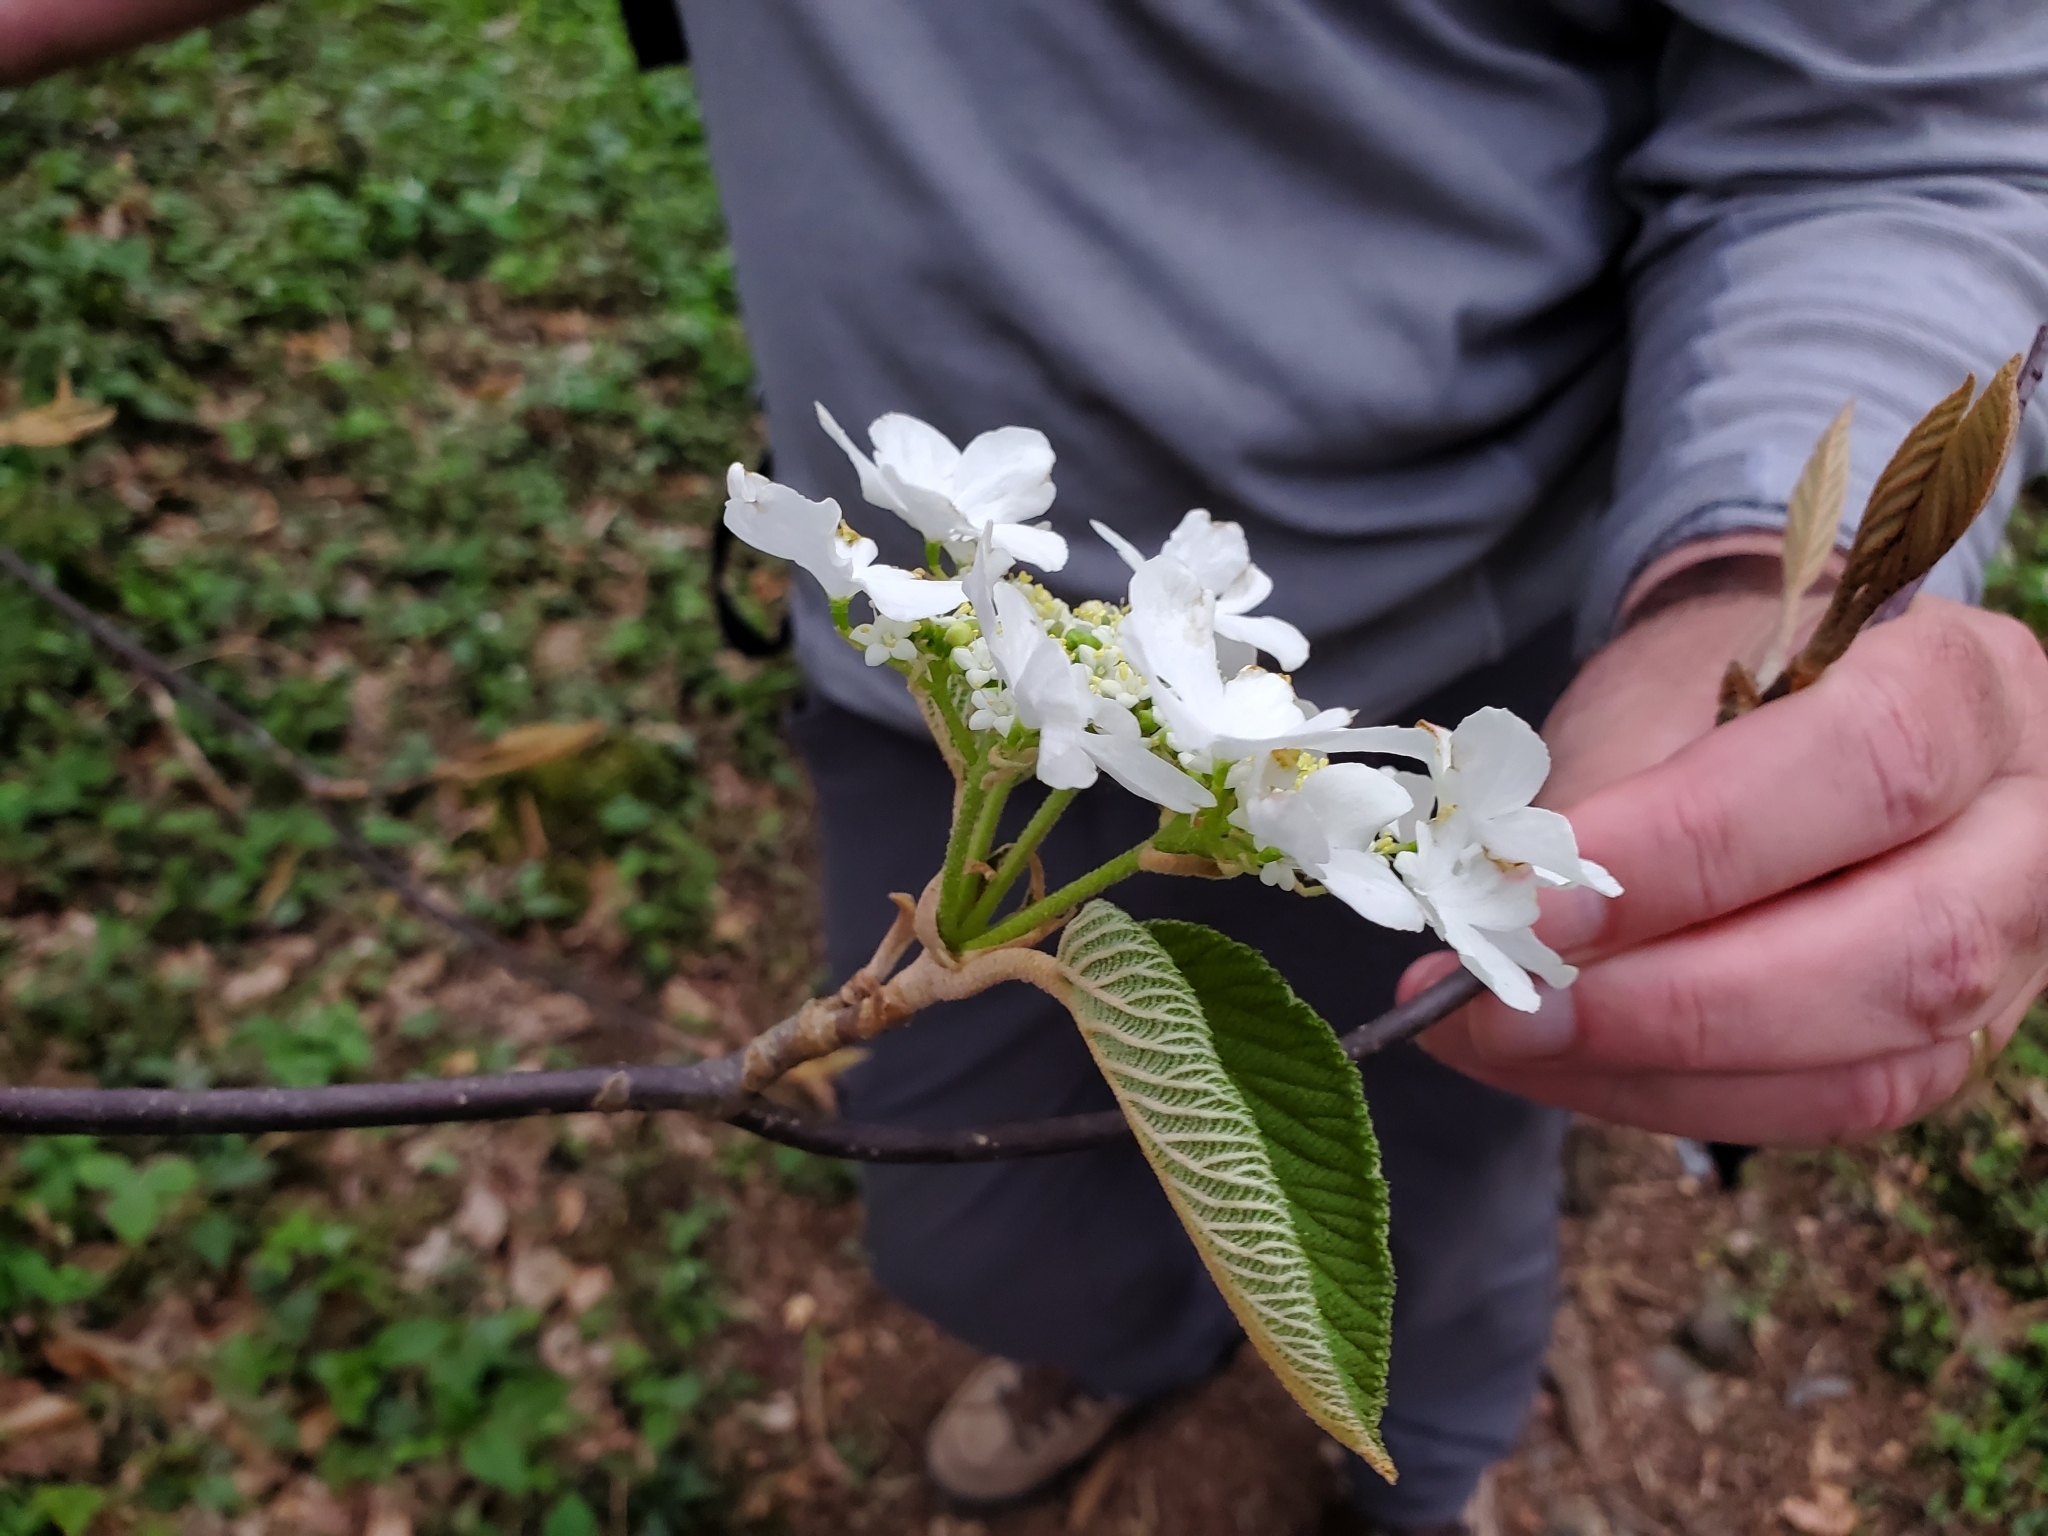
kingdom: Plantae
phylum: Tracheophyta
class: Magnoliopsida
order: Dipsacales
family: Viburnaceae
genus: Viburnum
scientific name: Viburnum lantanoides
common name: Hobblebush
